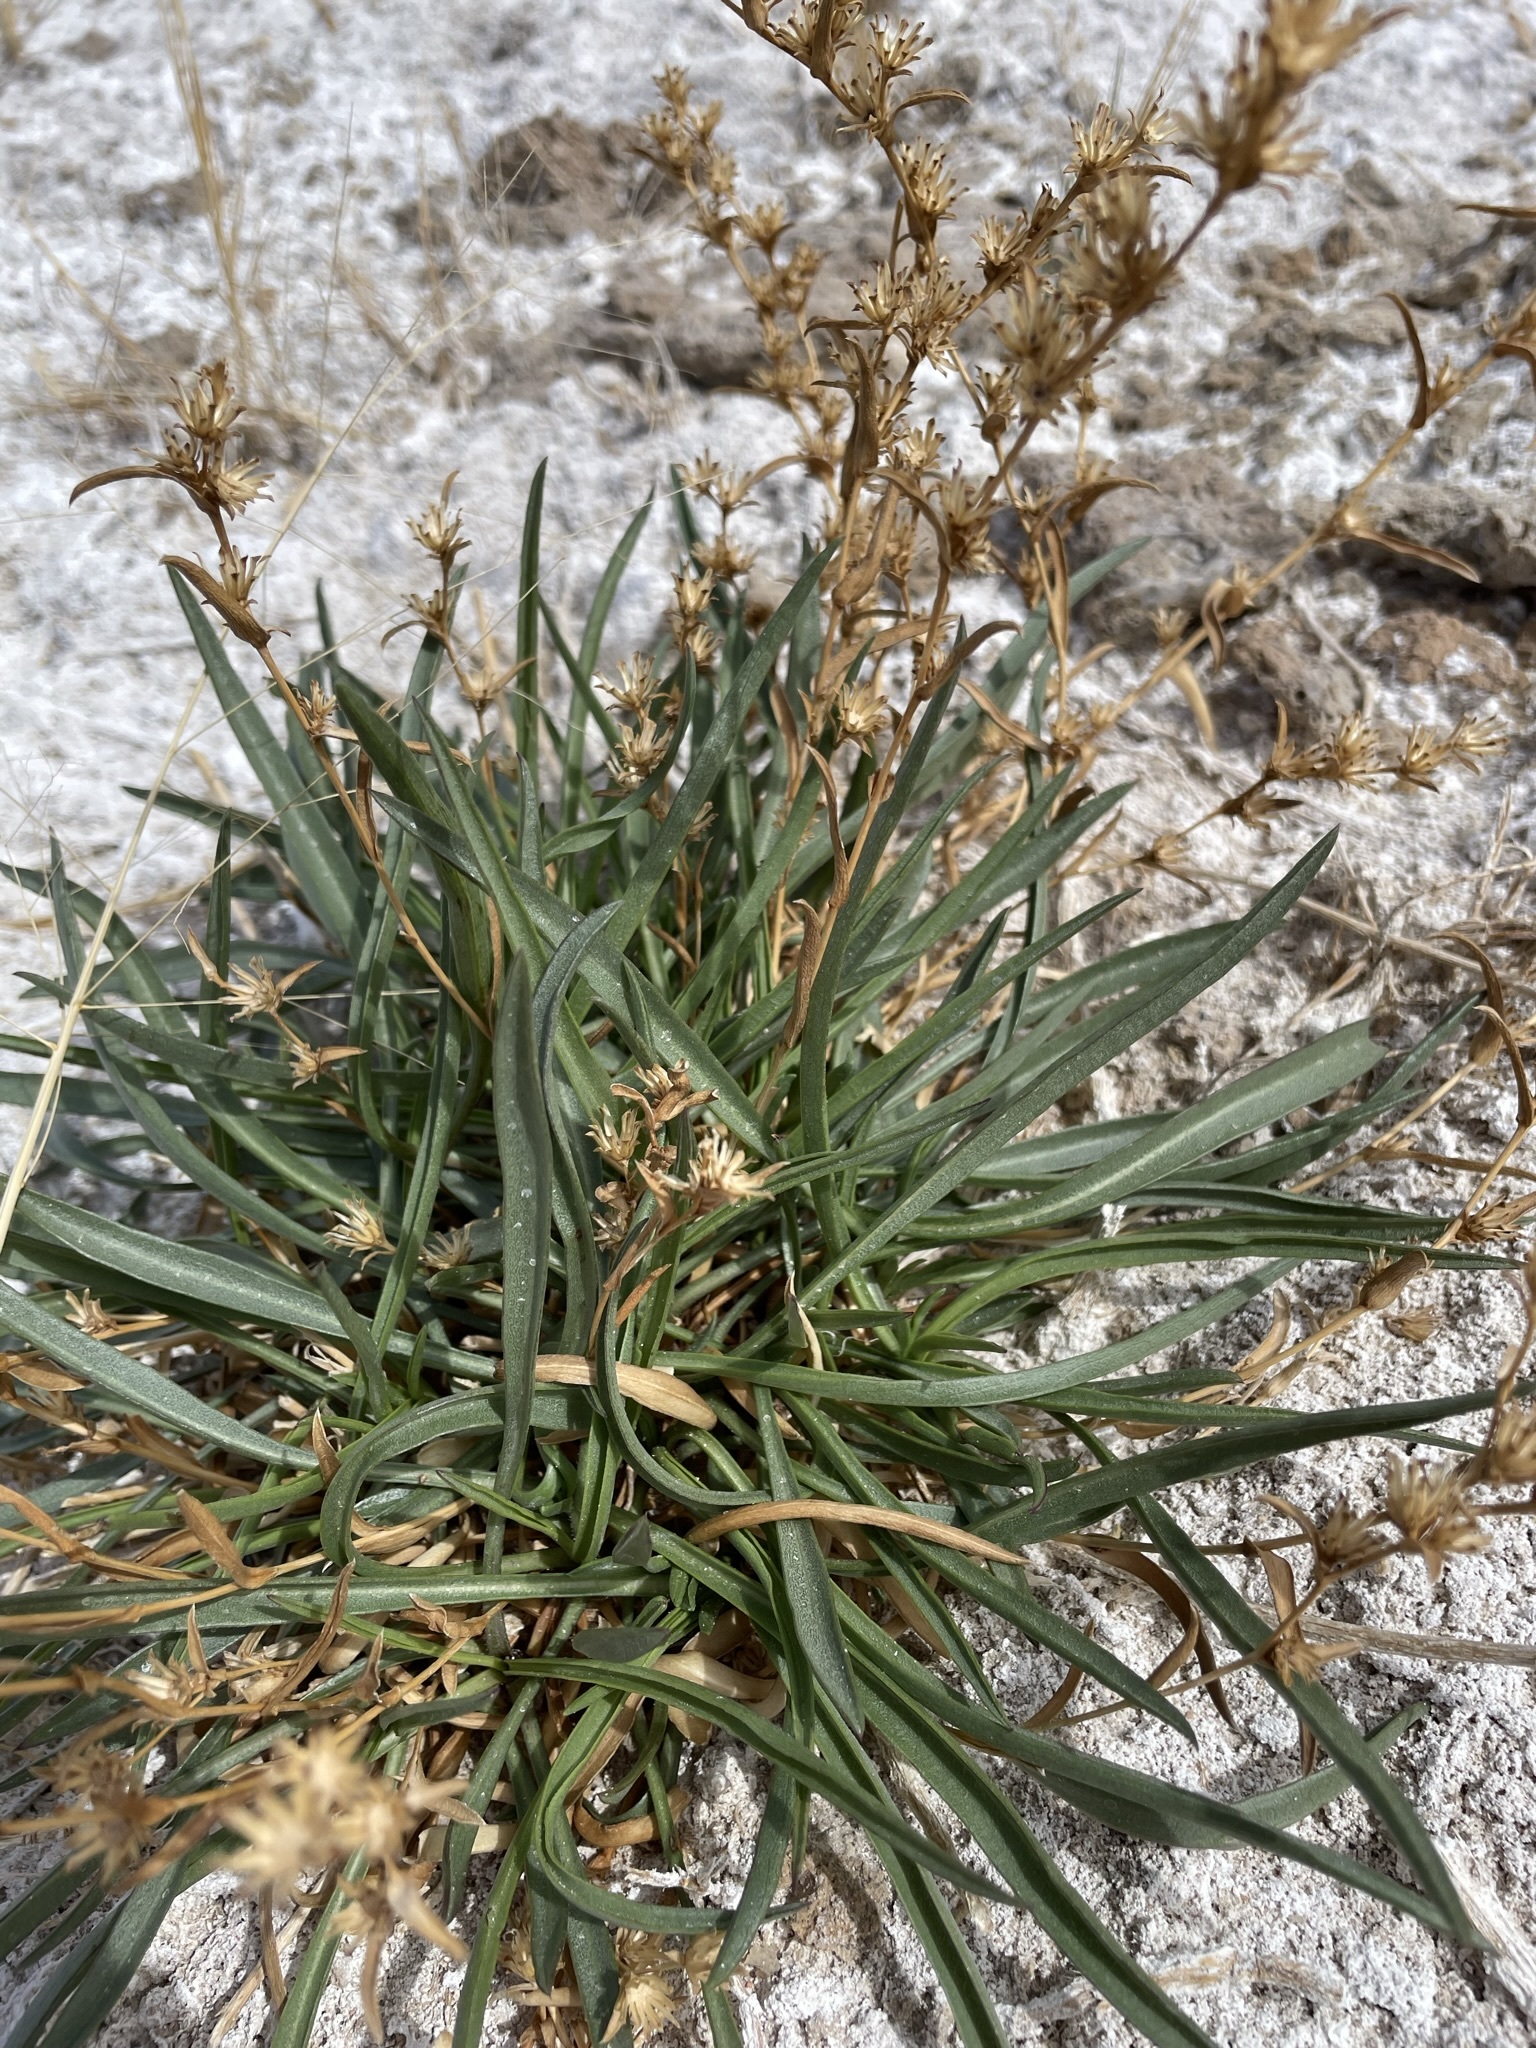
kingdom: Plantae
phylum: Tracheophyta
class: Magnoliopsida
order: Asterales
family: Asteraceae
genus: Pyrrocoma
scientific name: Pyrrocoma racemosa
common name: Clustered goldenweed
